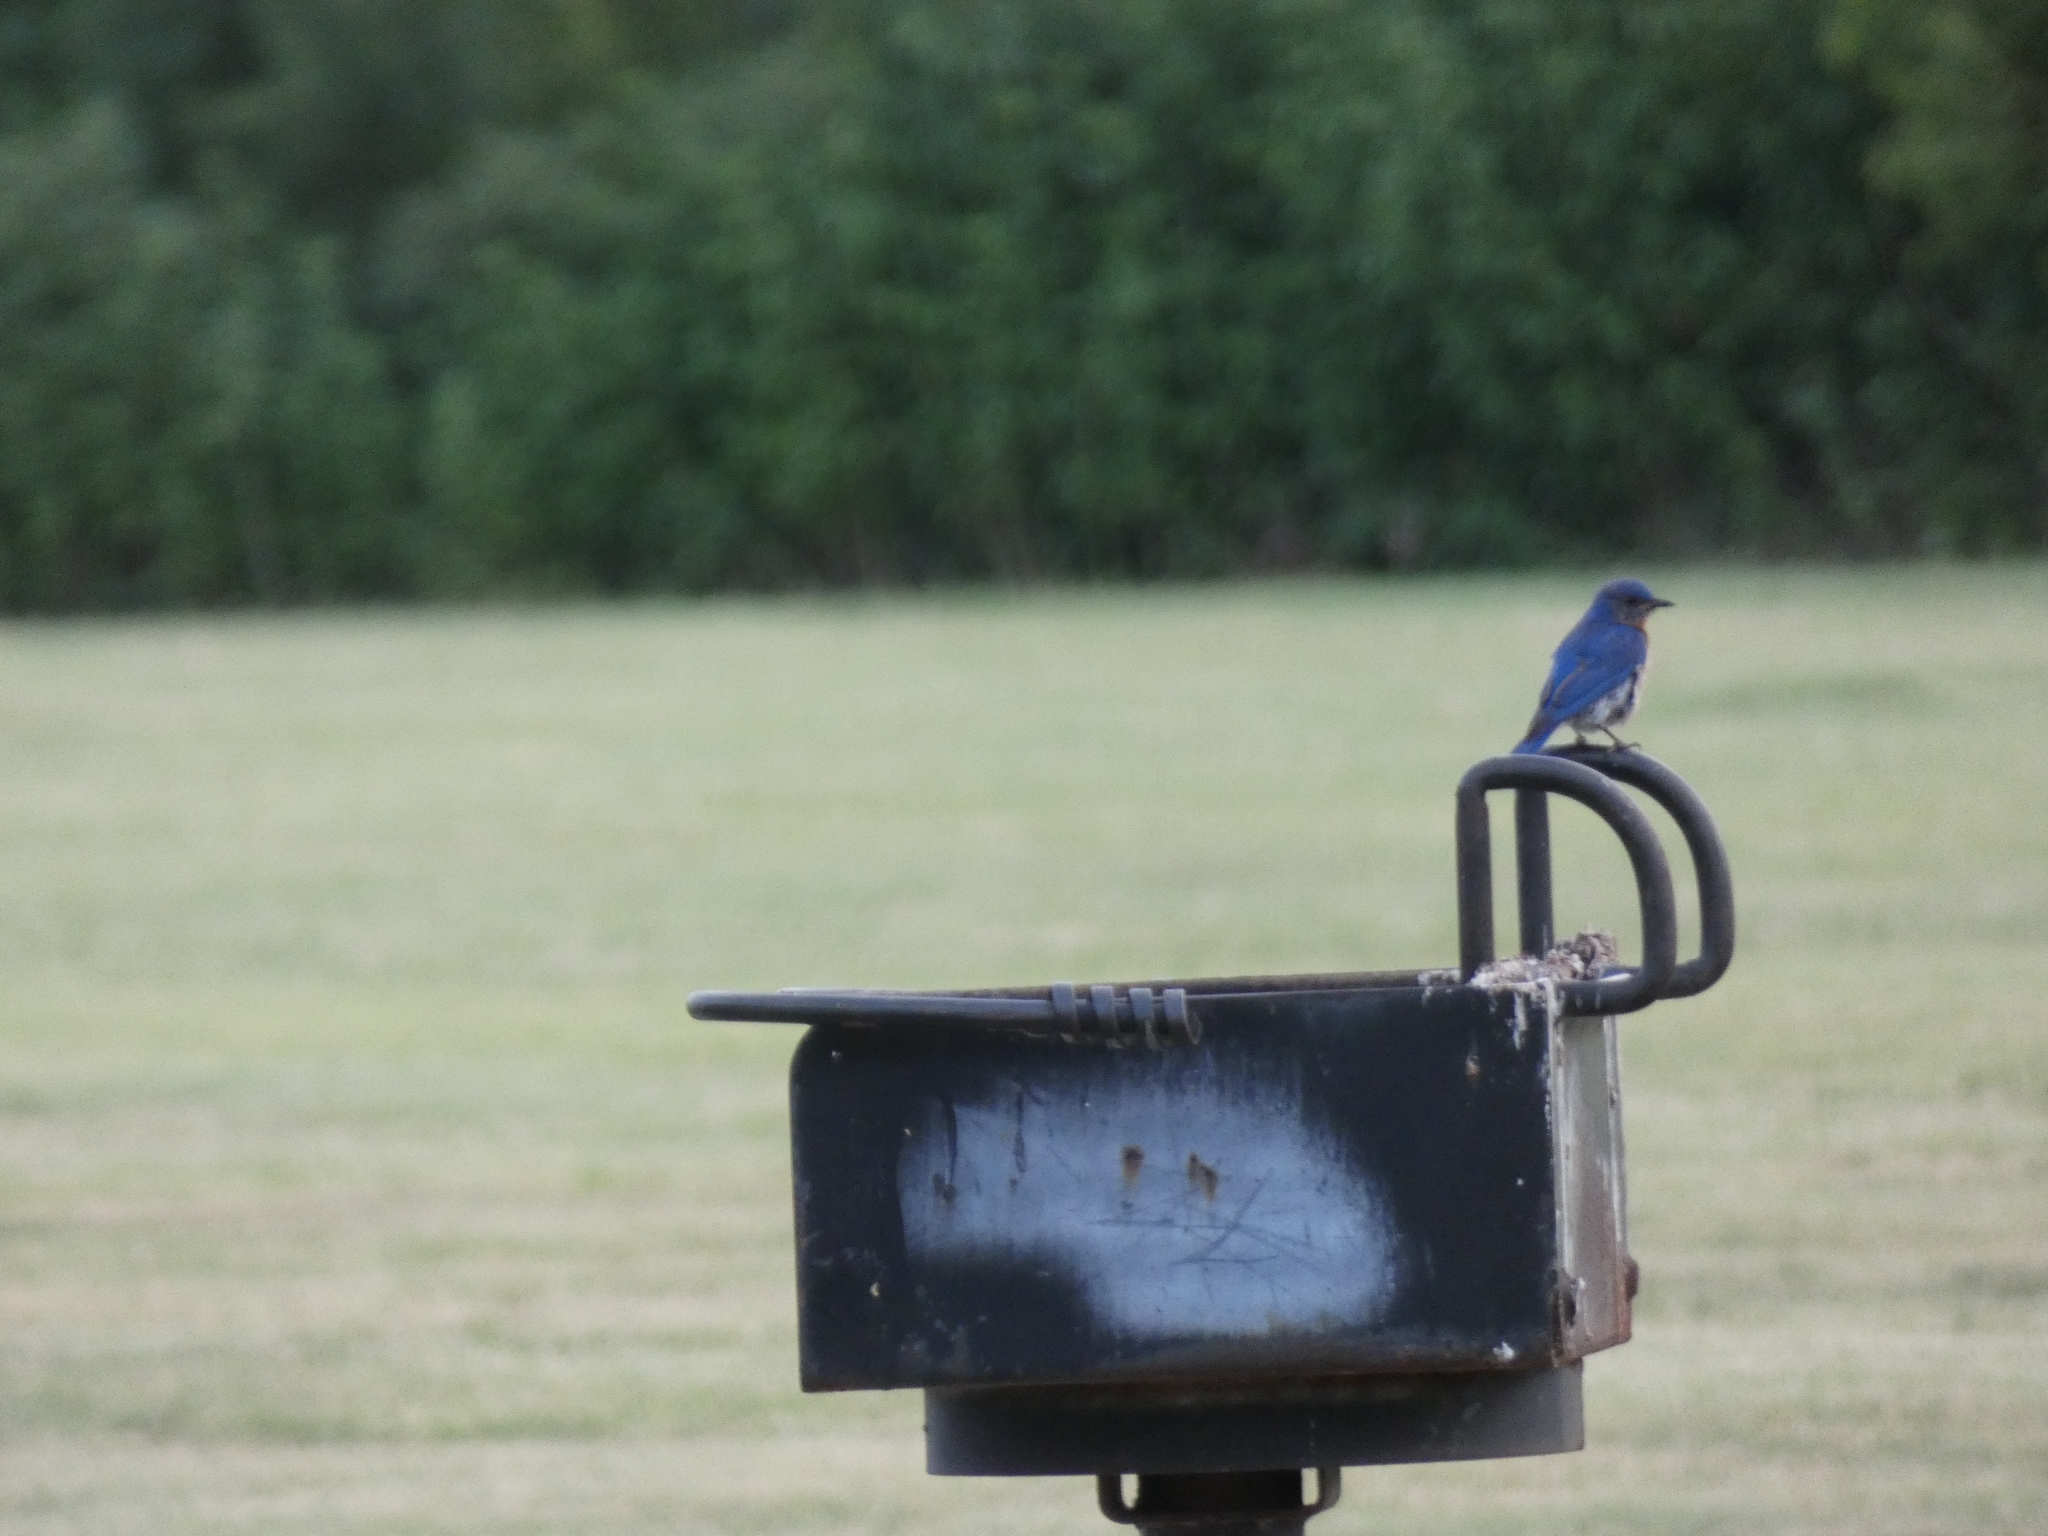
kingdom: Animalia
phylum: Chordata
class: Aves
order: Passeriformes
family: Turdidae
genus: Sialia
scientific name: Sialia sialis
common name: Eastern bluebird
